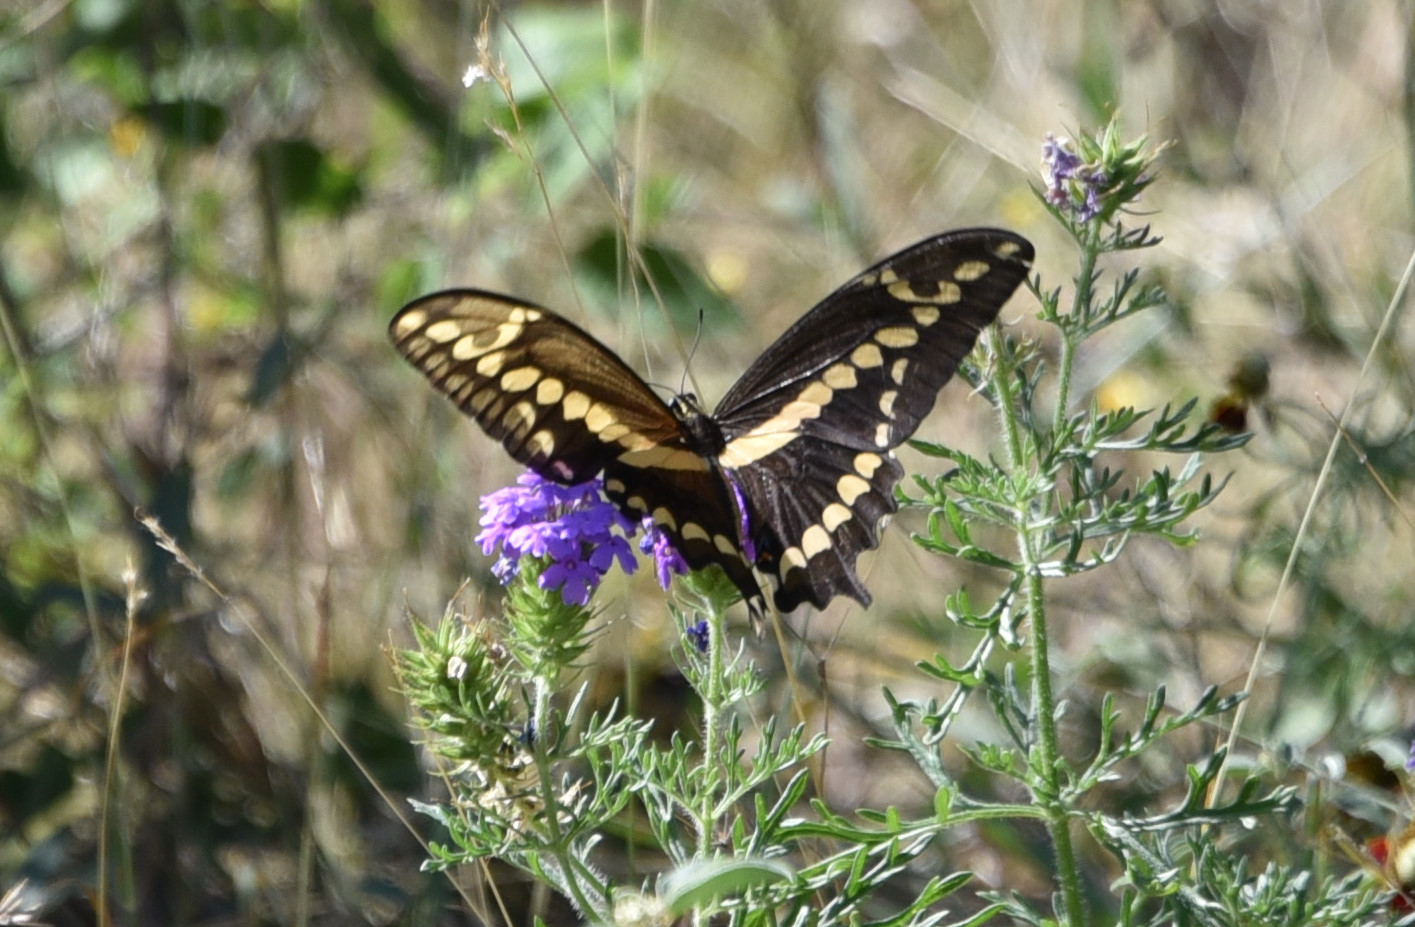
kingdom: Animalia
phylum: Arthropoda
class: Insecta
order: Lepidoptera
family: Papilionidae
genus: Papilio
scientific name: Papilio rumiko
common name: Western giant swallowtail
